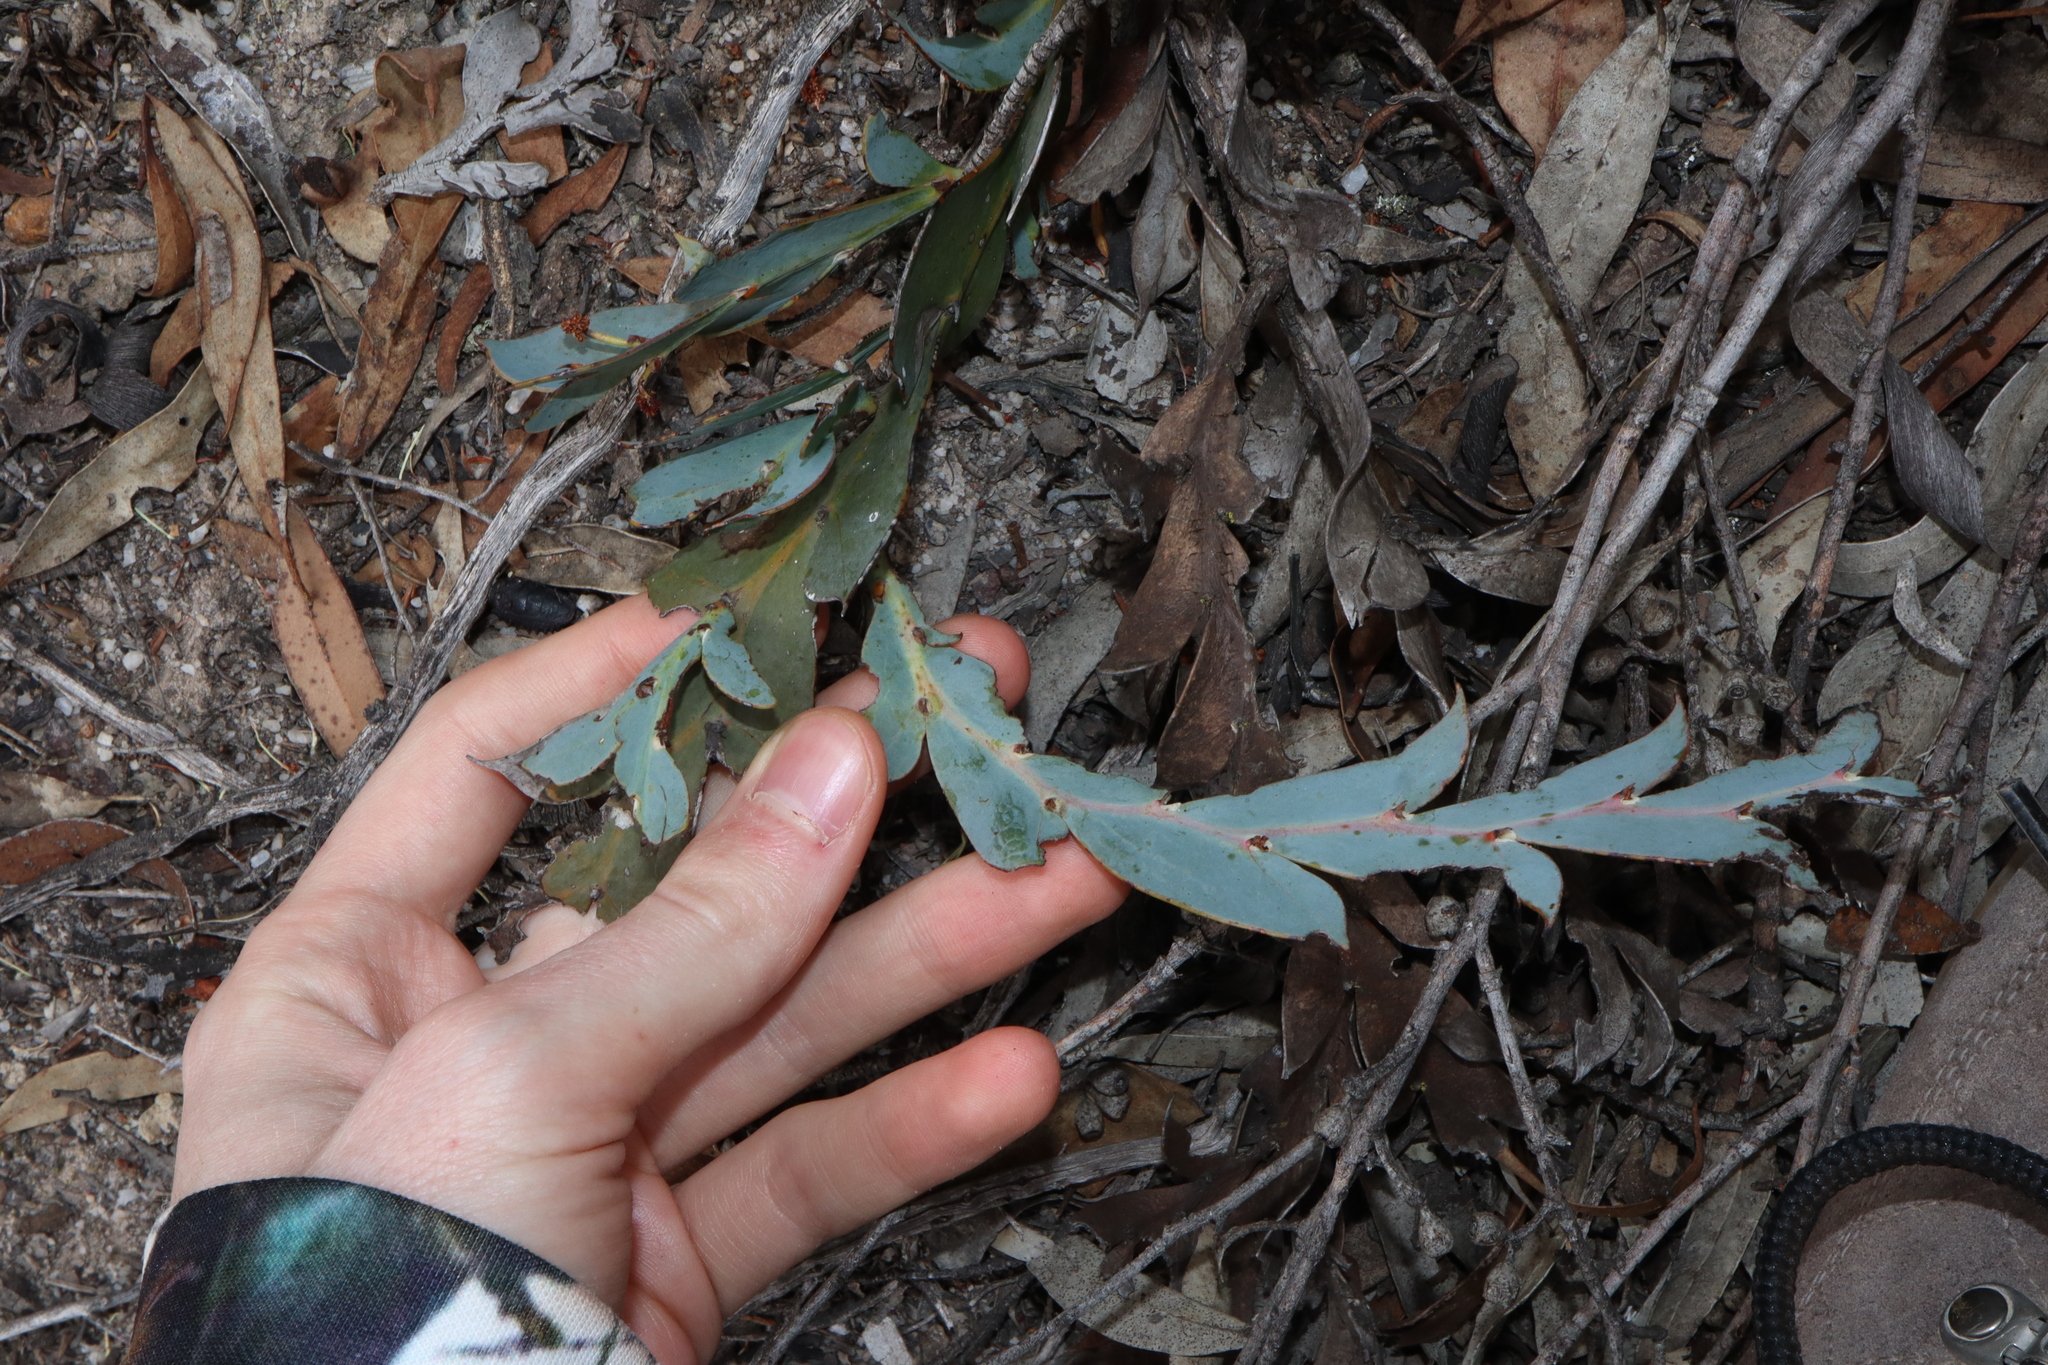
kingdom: Plantae
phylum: Tracheophyta
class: Magnoliopsida
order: Fabales
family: Fabaceae
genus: Acacia
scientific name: Acacia glaucoptera
